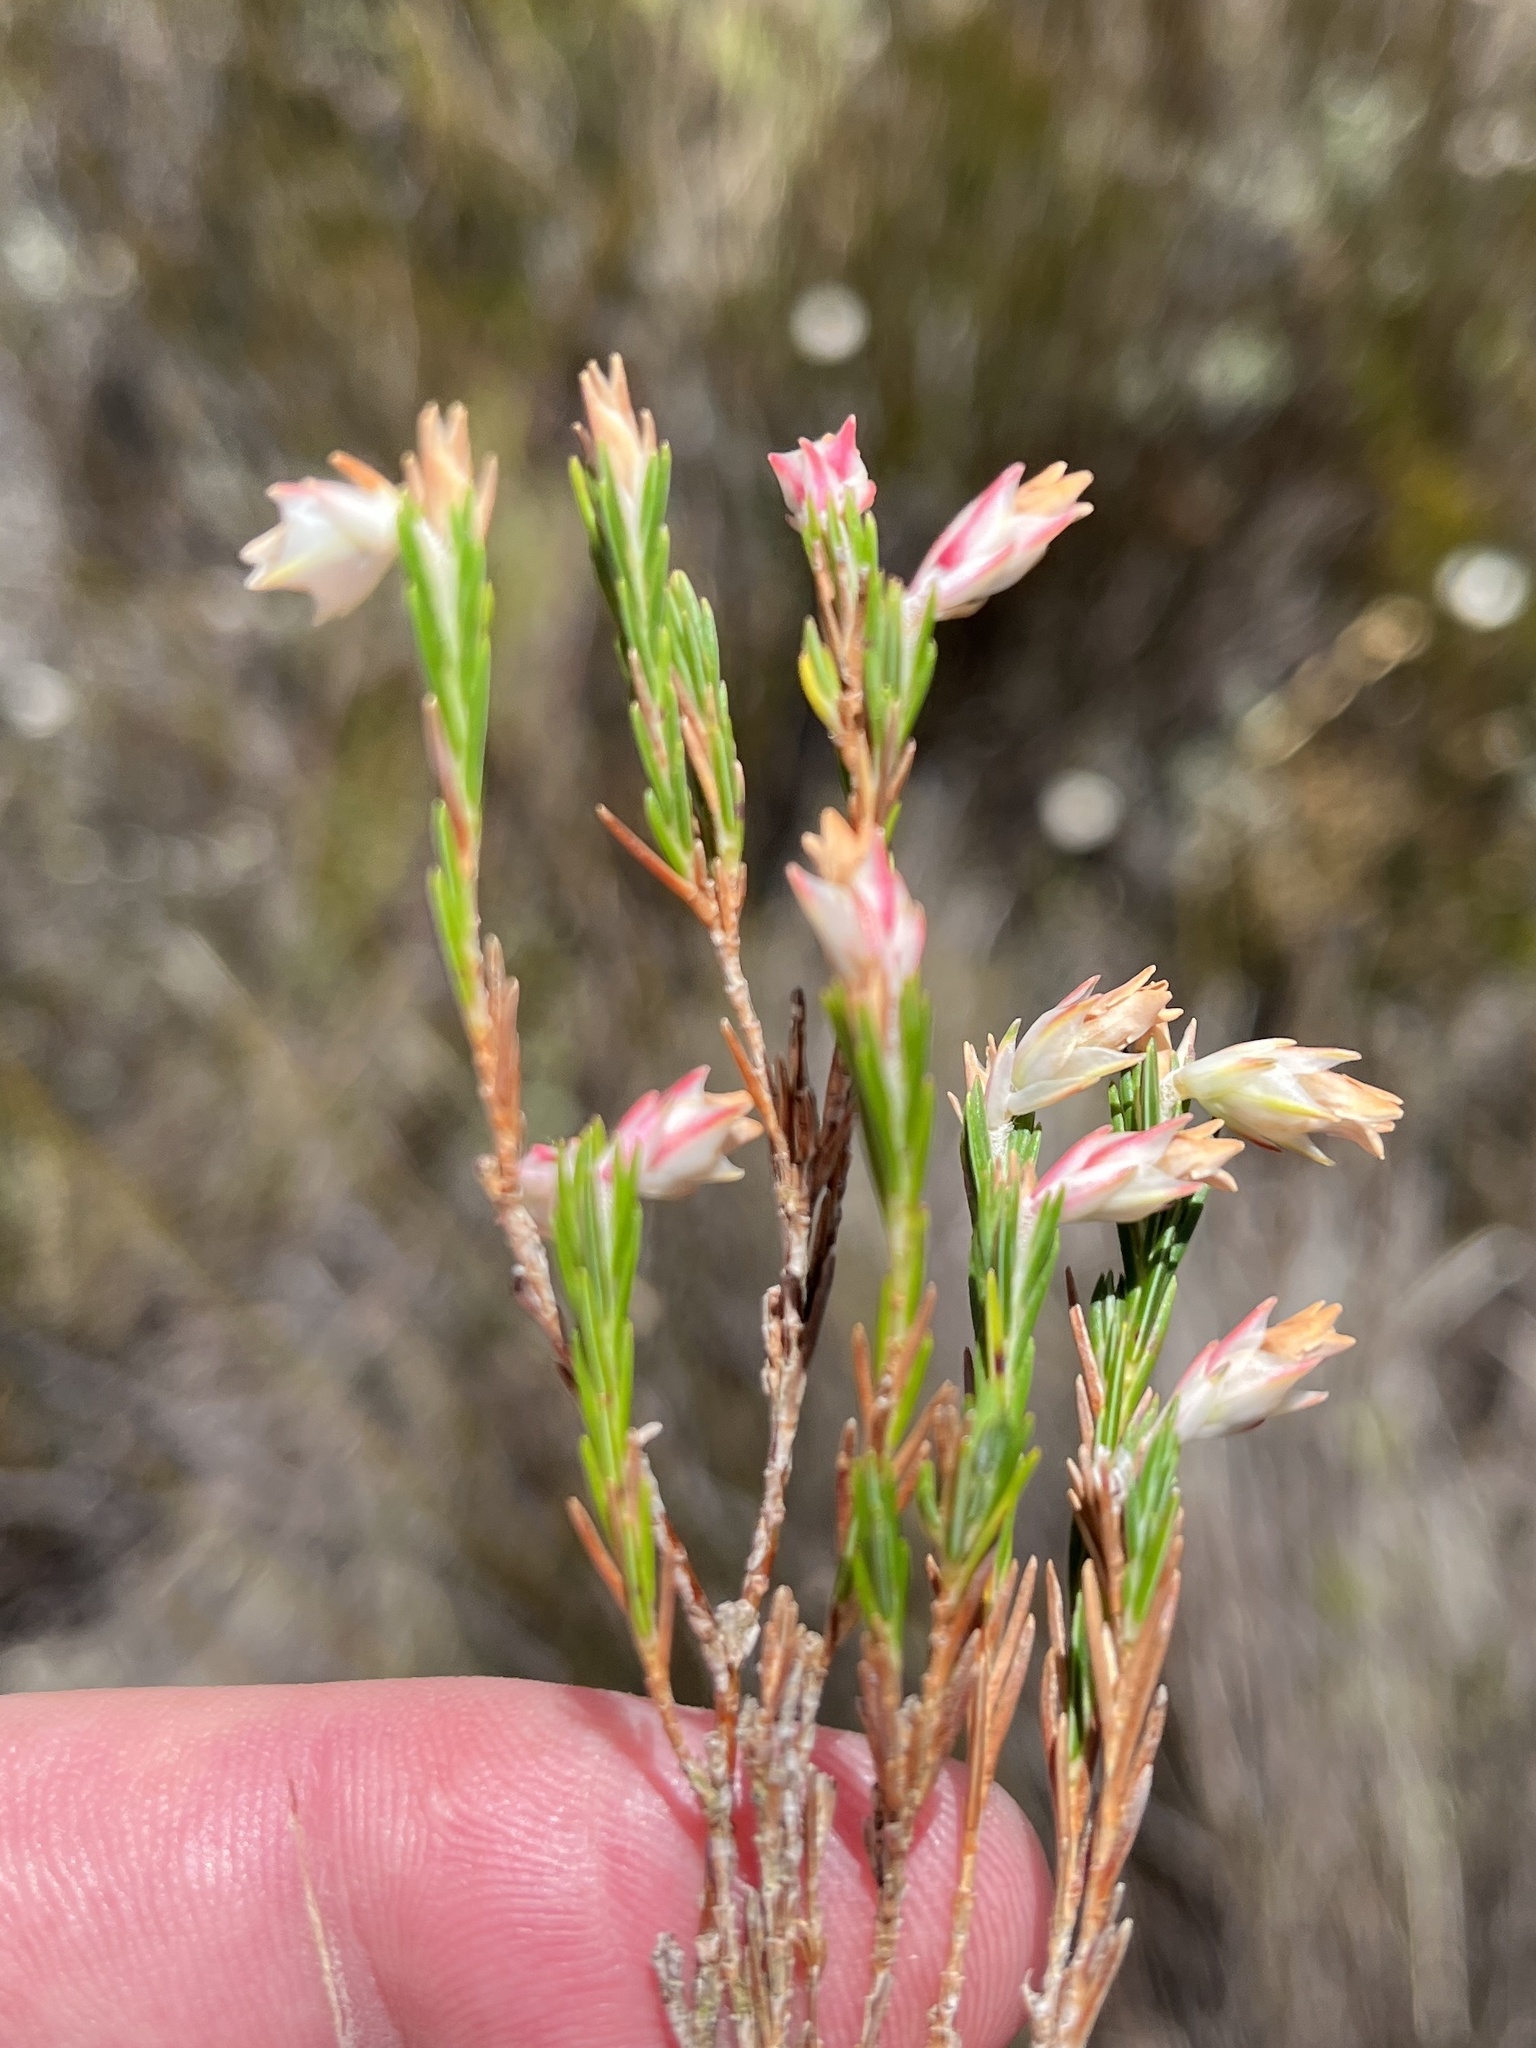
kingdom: Plantae
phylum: Tracheophyta
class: Magnoliopsida
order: Ericales
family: Ericaceae
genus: Erica
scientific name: Erica dianthifolia
